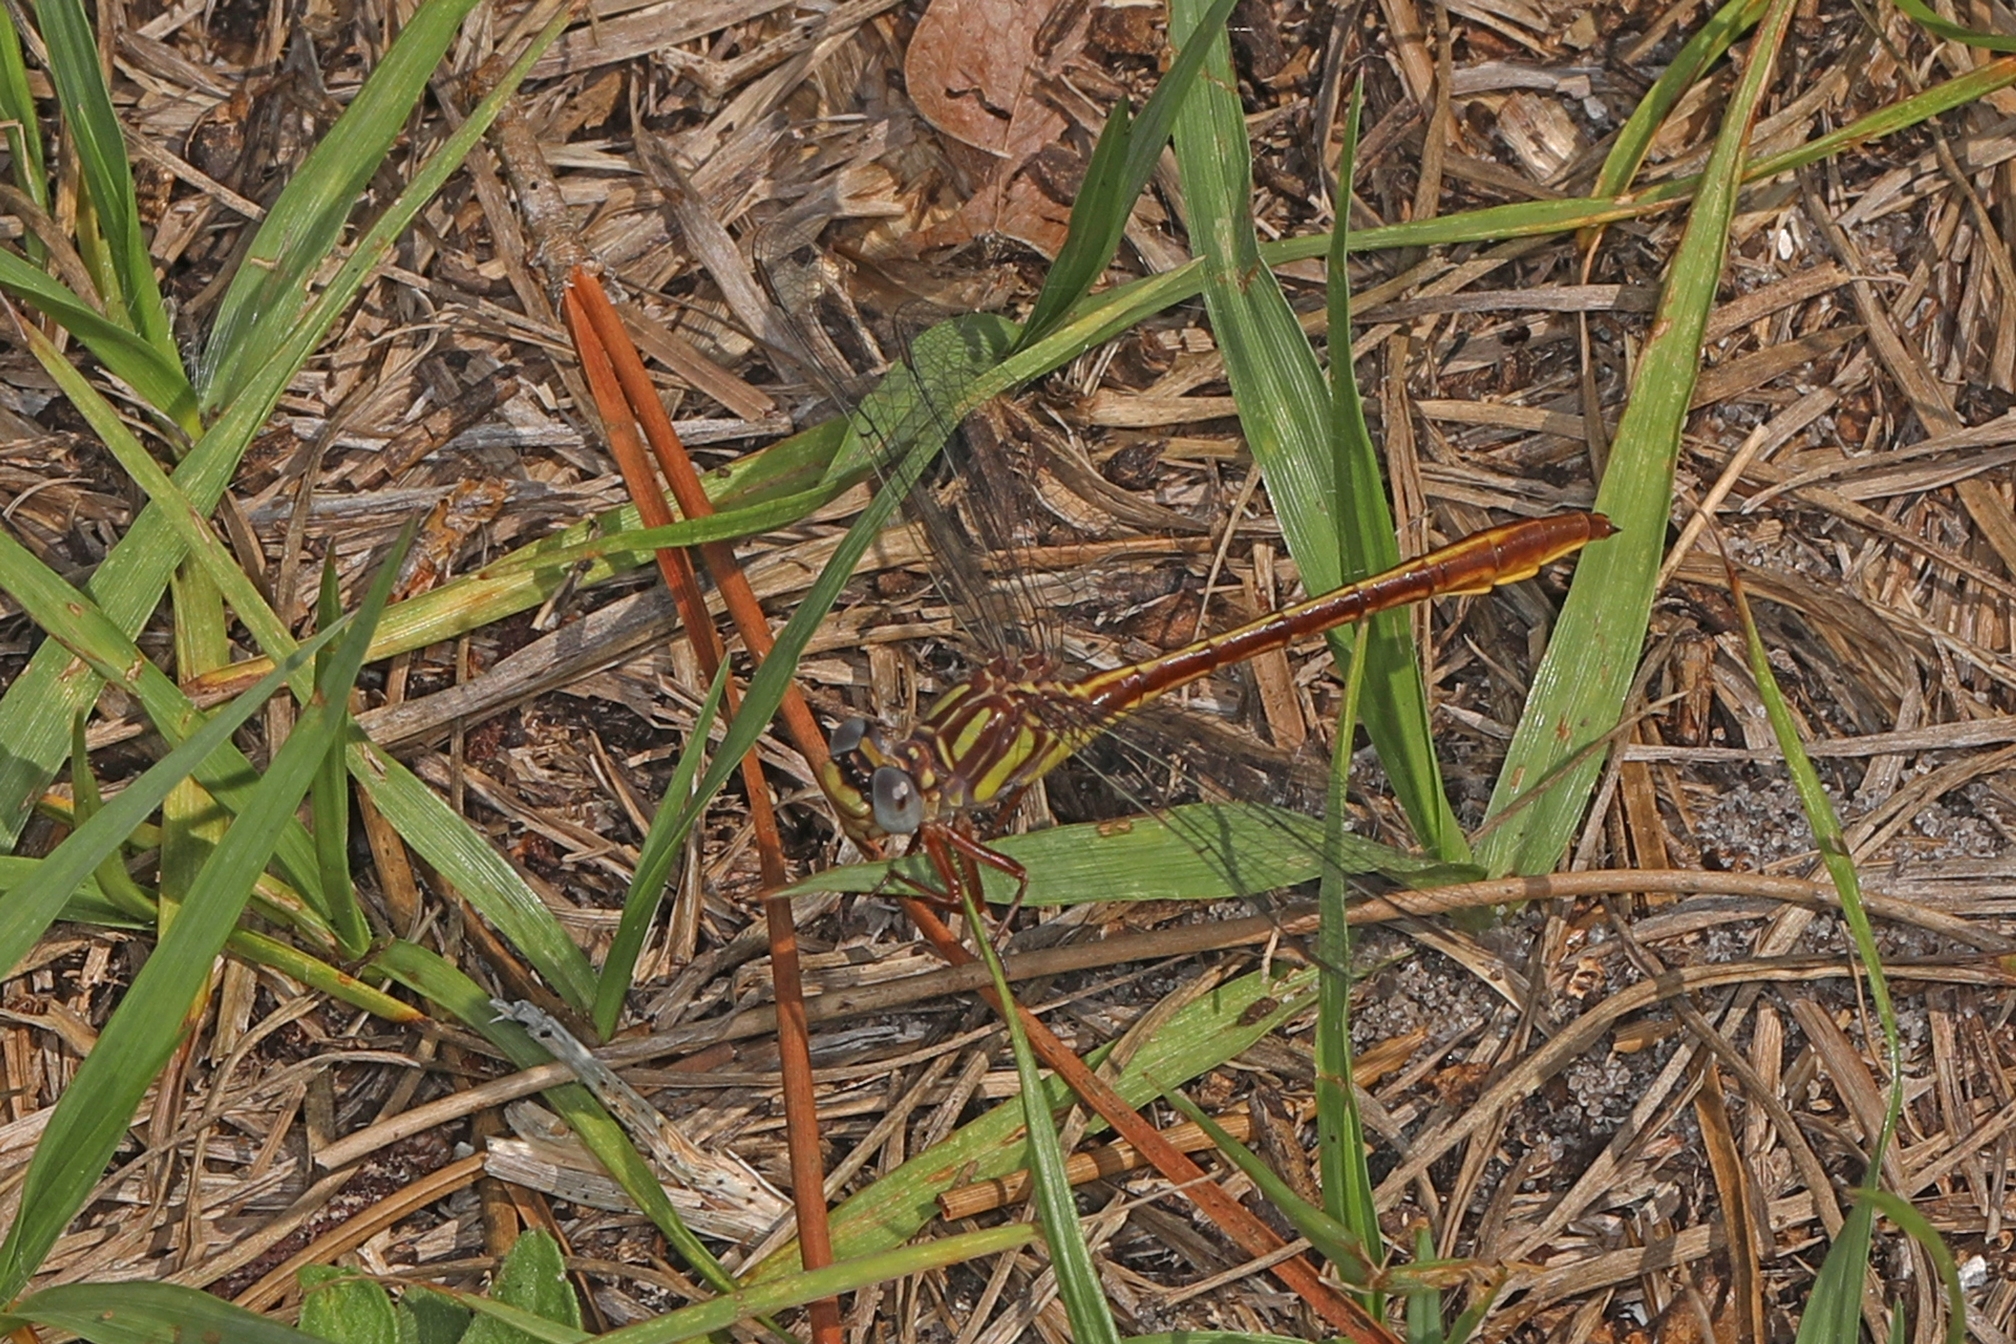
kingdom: Animalia
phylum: Arthropoda
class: Insecta
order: Odonata
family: Gomphidae
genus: Phanogomphus
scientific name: Phanogomphus minutus
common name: Cypress clubtail
